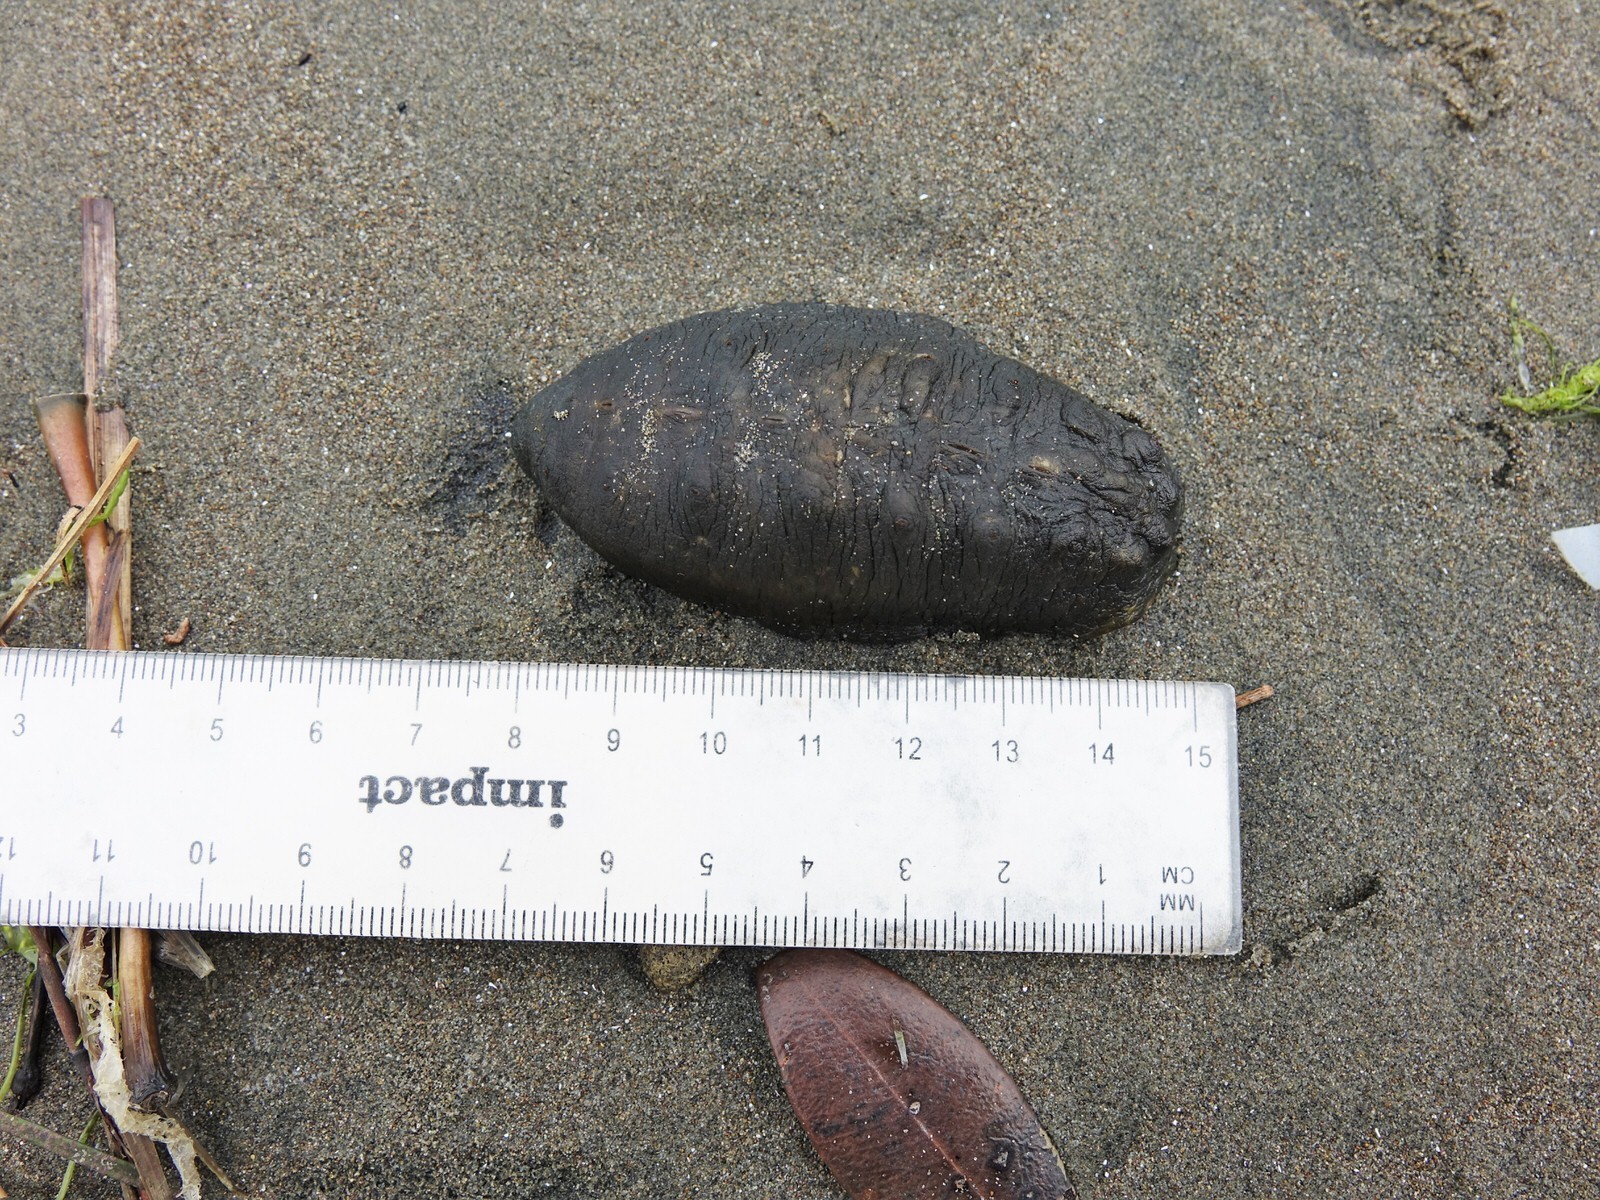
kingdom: Animalia
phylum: Mollusca
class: Polyplacophora
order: Chitonida
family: Acanthochitonidae
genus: Cryptoconchus
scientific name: Cryptoconchus porosus
